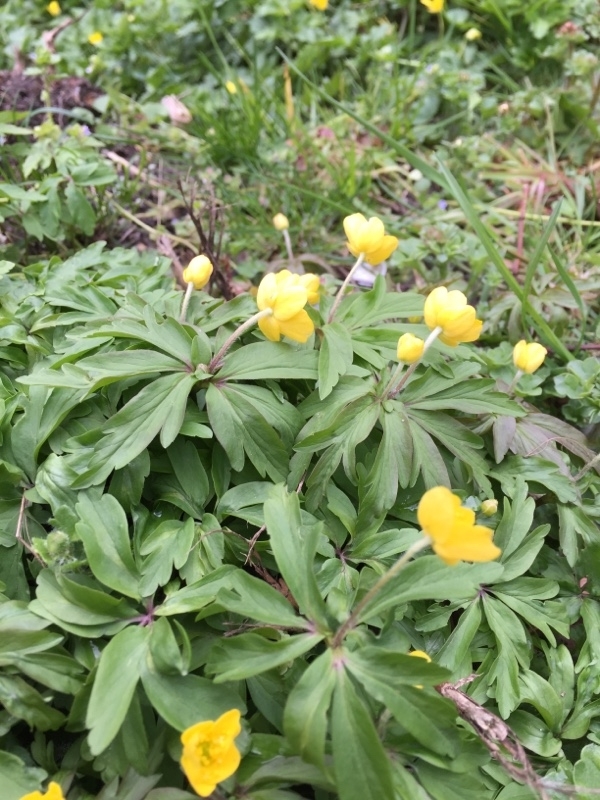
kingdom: Plantae
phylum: Tracheophyta
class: Magnoliopsida
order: Ranunculales
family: Ranunculaceae
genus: Anemone
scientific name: Anemone ranunculoides
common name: Yellow anemone
